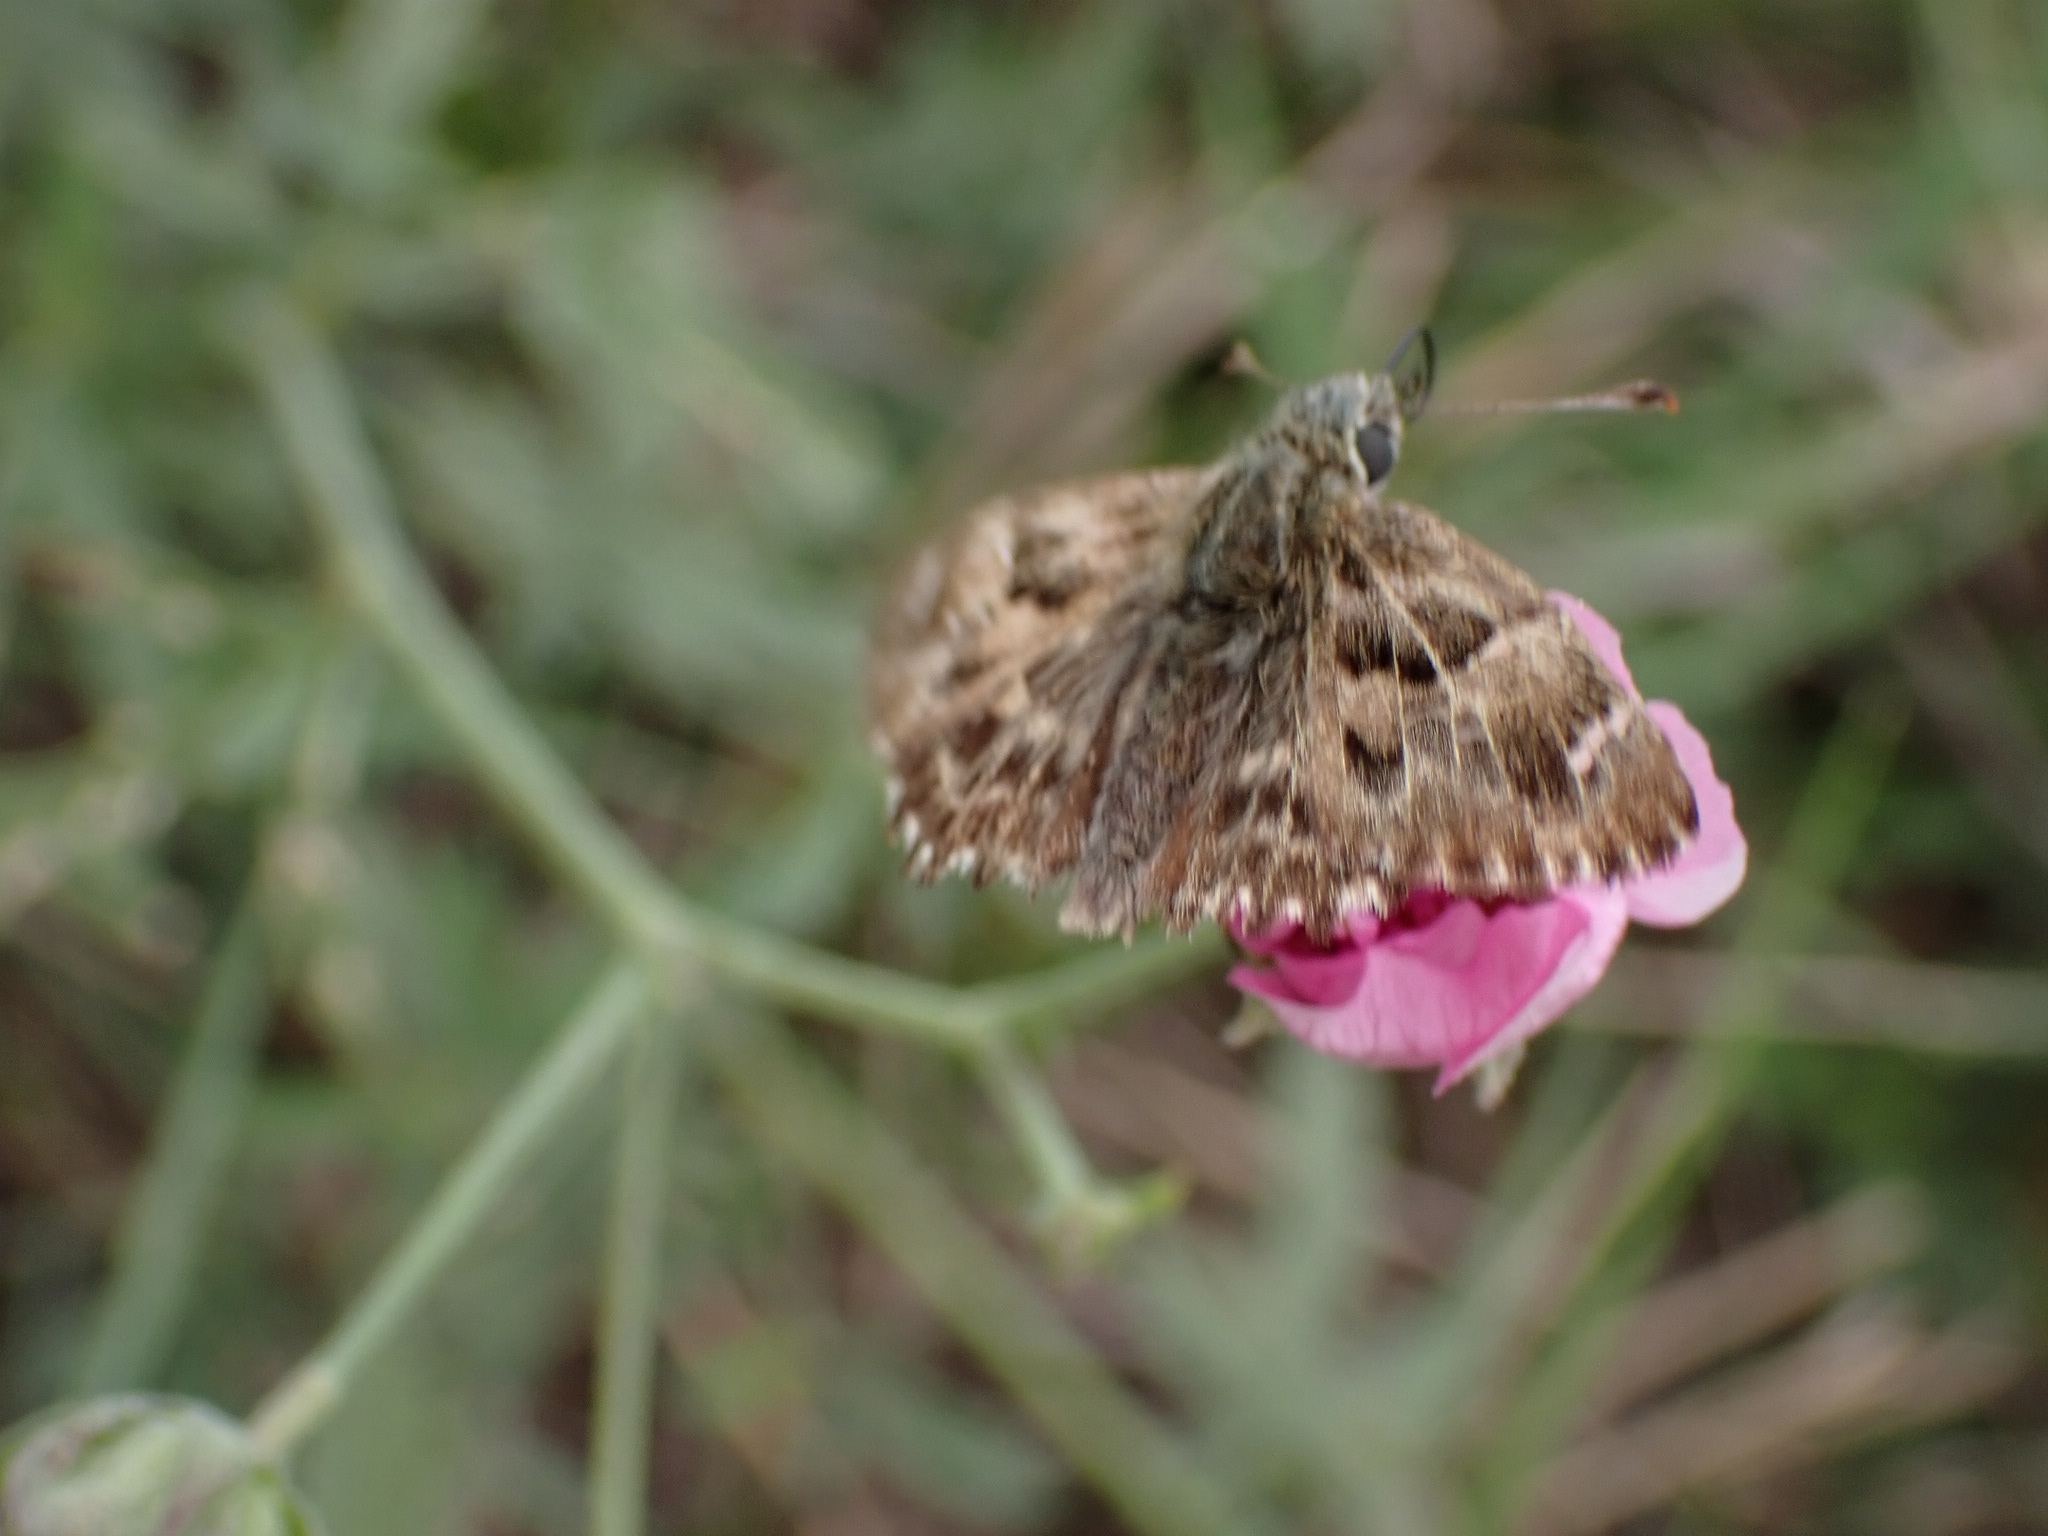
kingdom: Animalia
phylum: Arthropoda
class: Insecta
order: Lepidoptera
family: Hesperiidae
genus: Carcharodus
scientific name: Carcharodus alceae
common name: Mallow skipper
